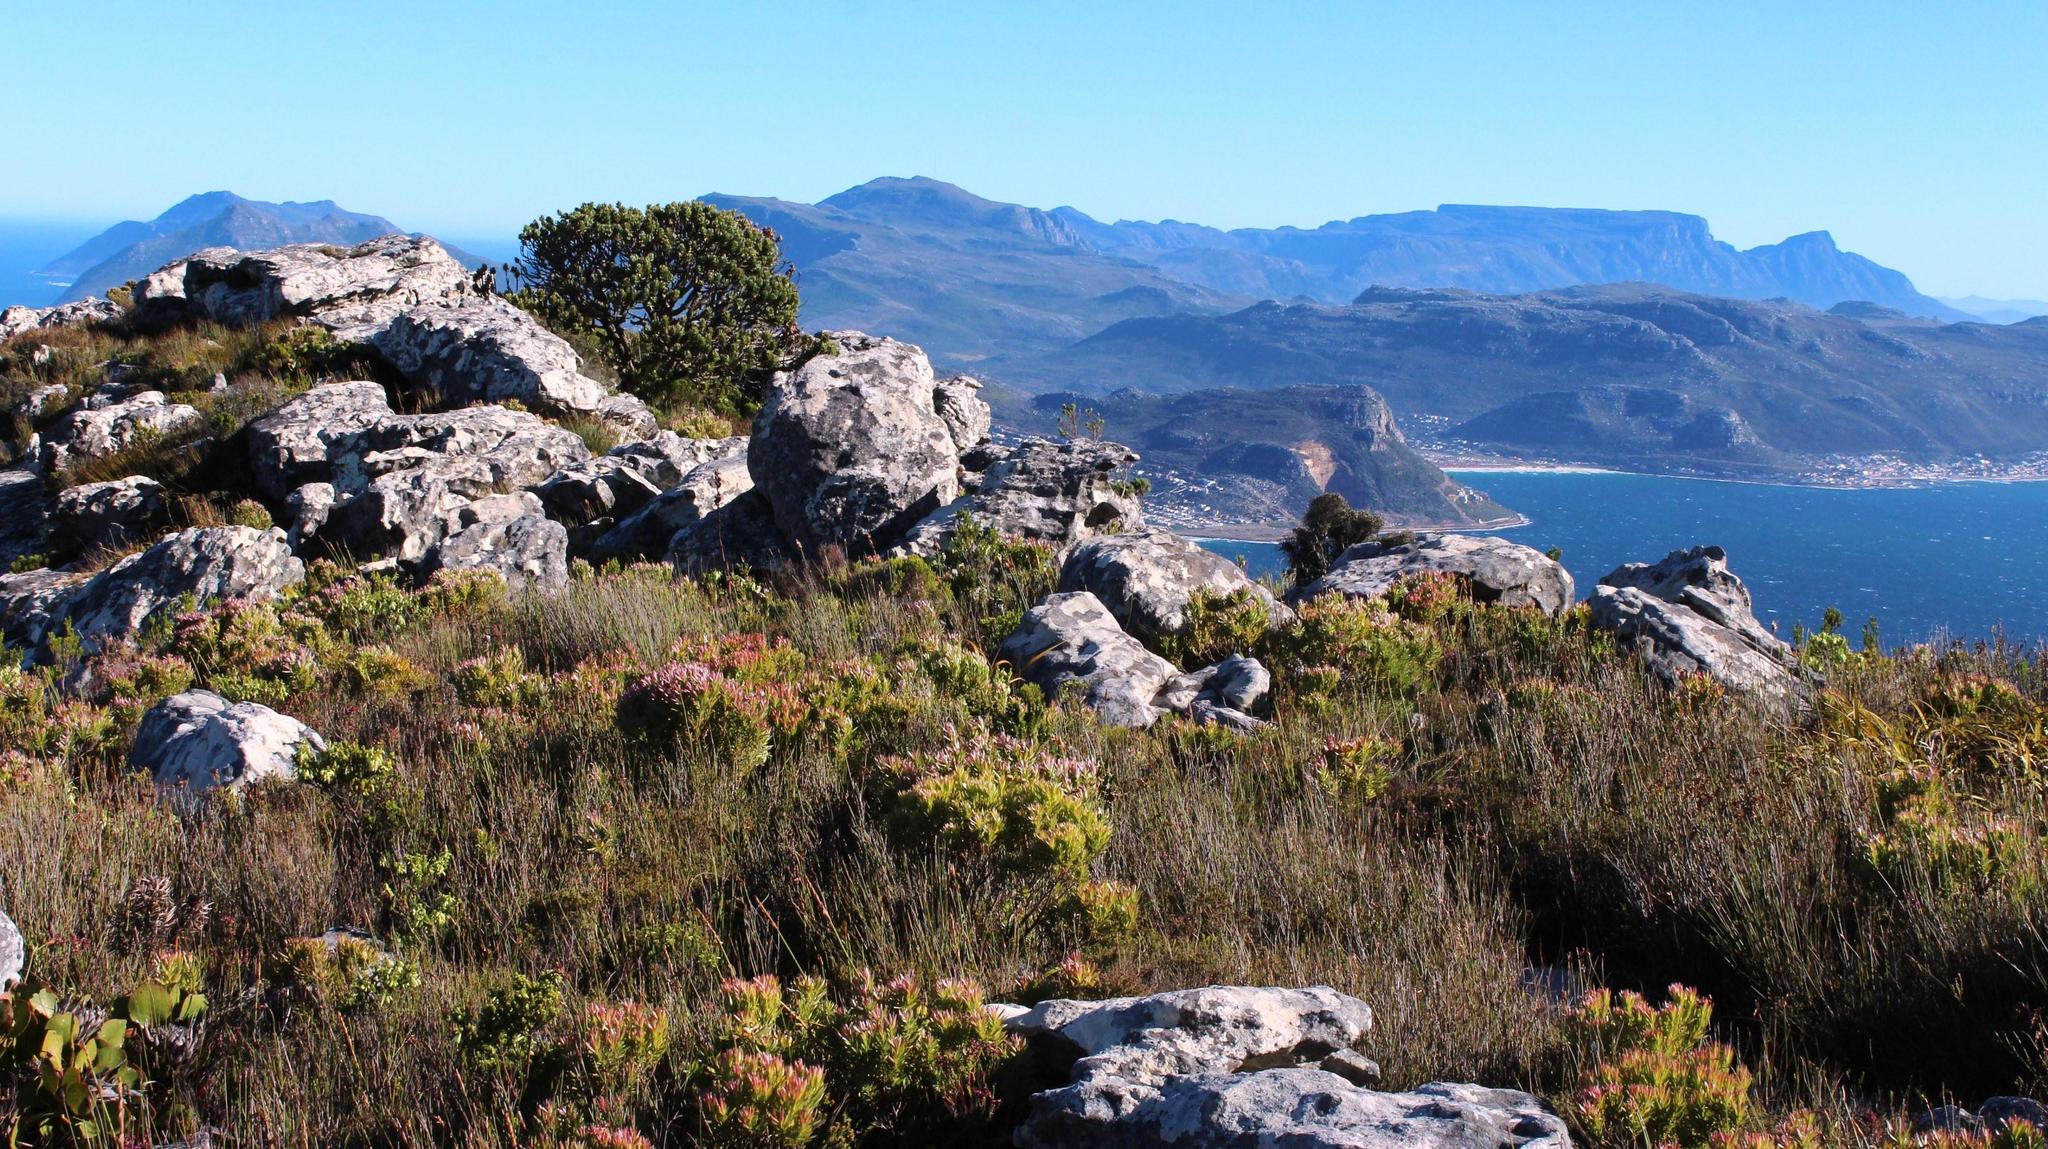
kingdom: Plantae
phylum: Tracheophyta
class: Magnoliopsida
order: Proteales
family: Proteaceae
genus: Leucadendron
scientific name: Leucadendron xanthoconus
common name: Sickle-leaf conebush
